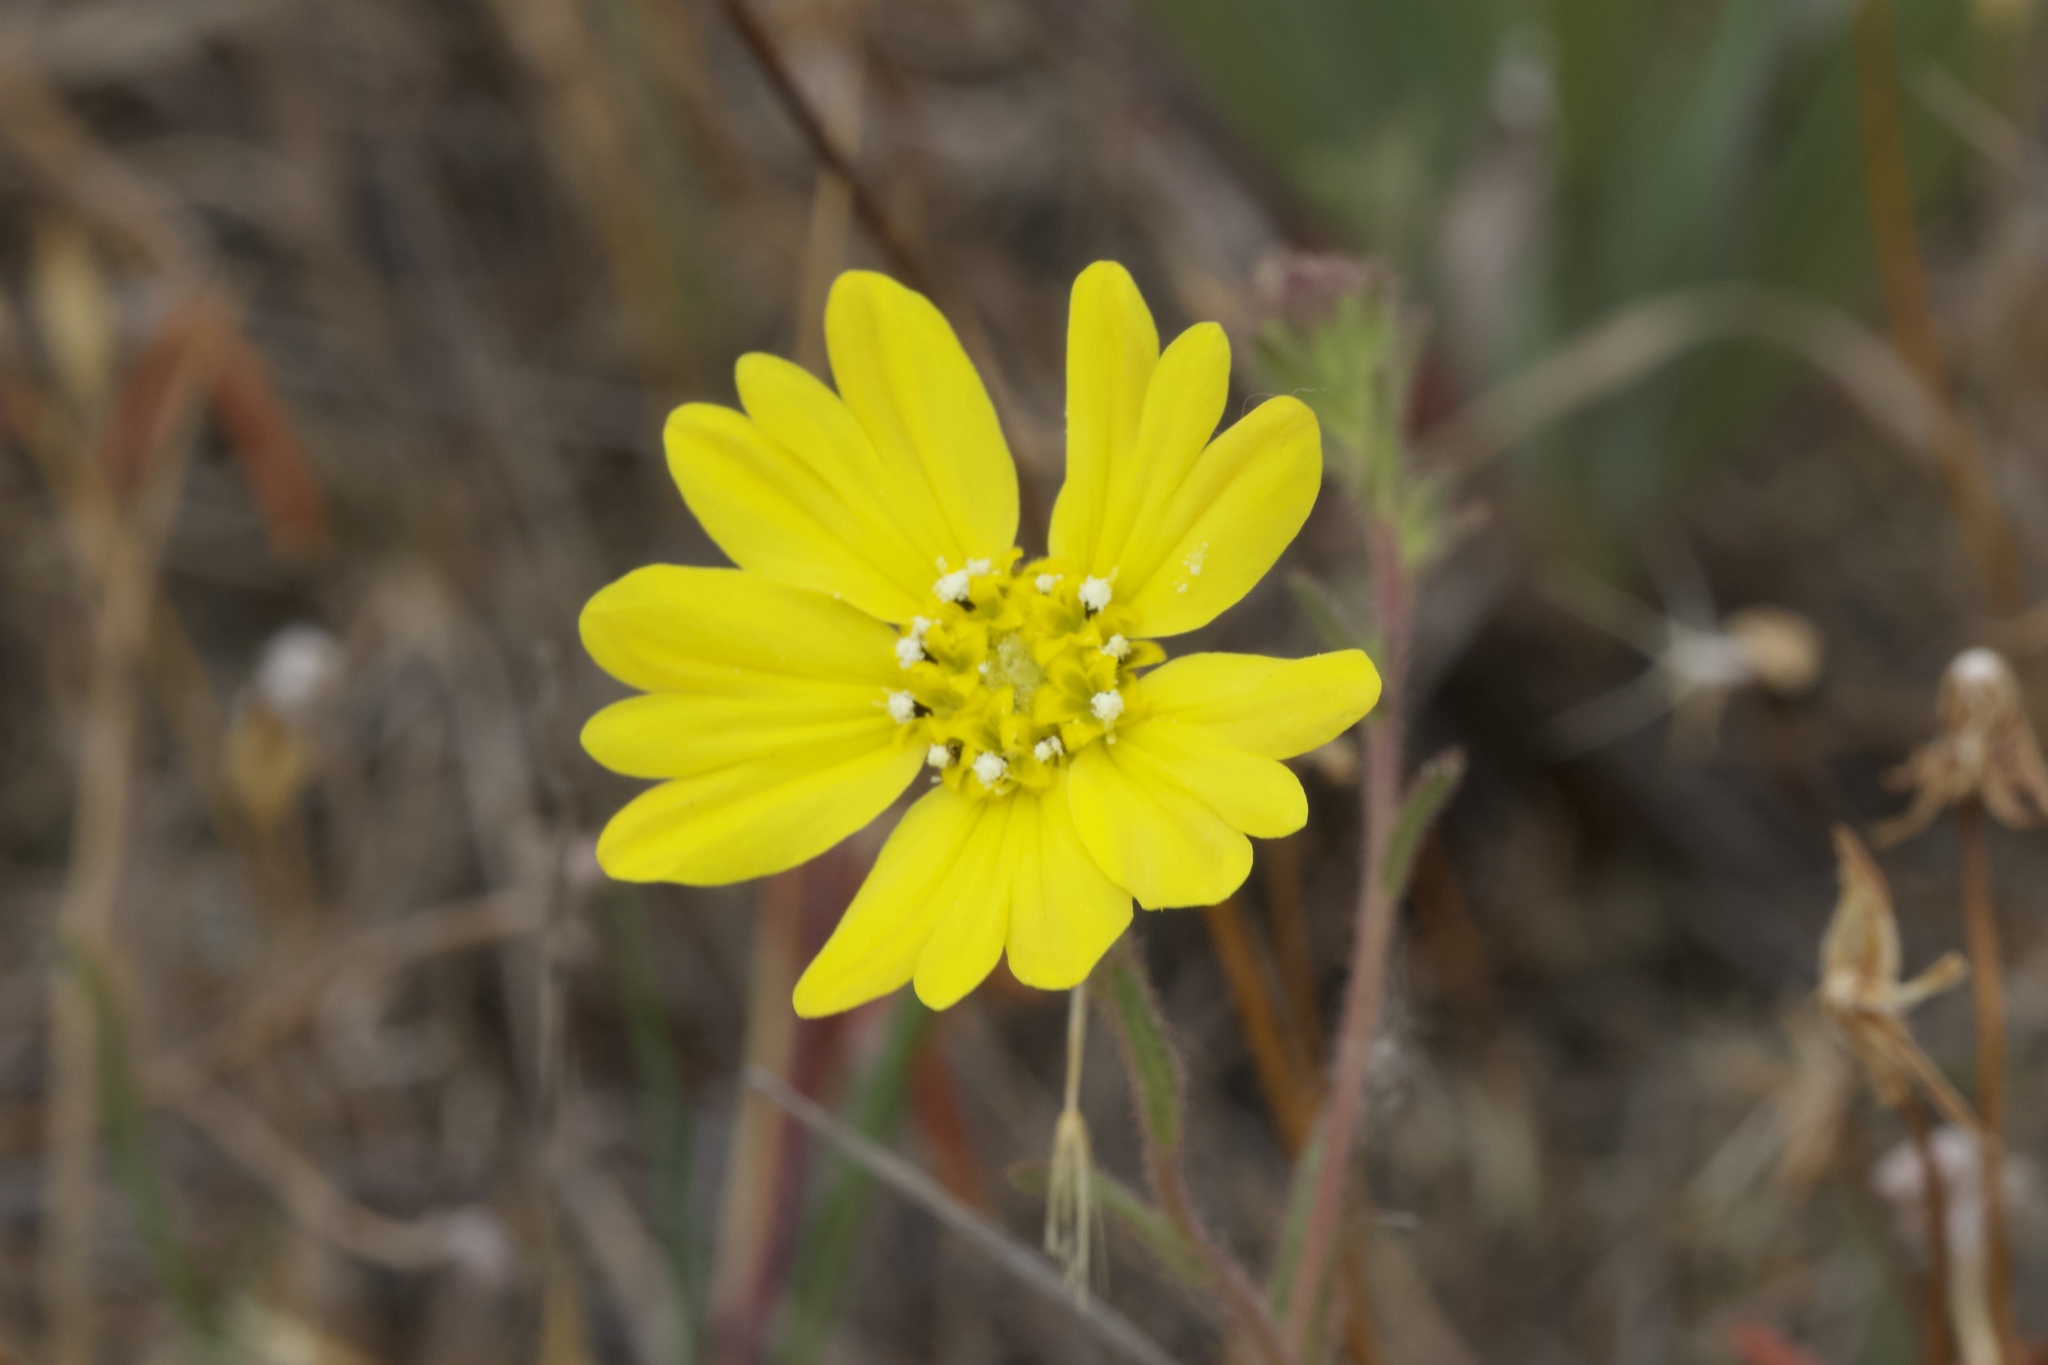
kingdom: Plantae
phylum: Tracheophyta
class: Magnoliopsida
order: Asterales
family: Asteraceae
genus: Hemizonia
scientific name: Hemizonia congesta
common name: Hayfield tarweed
